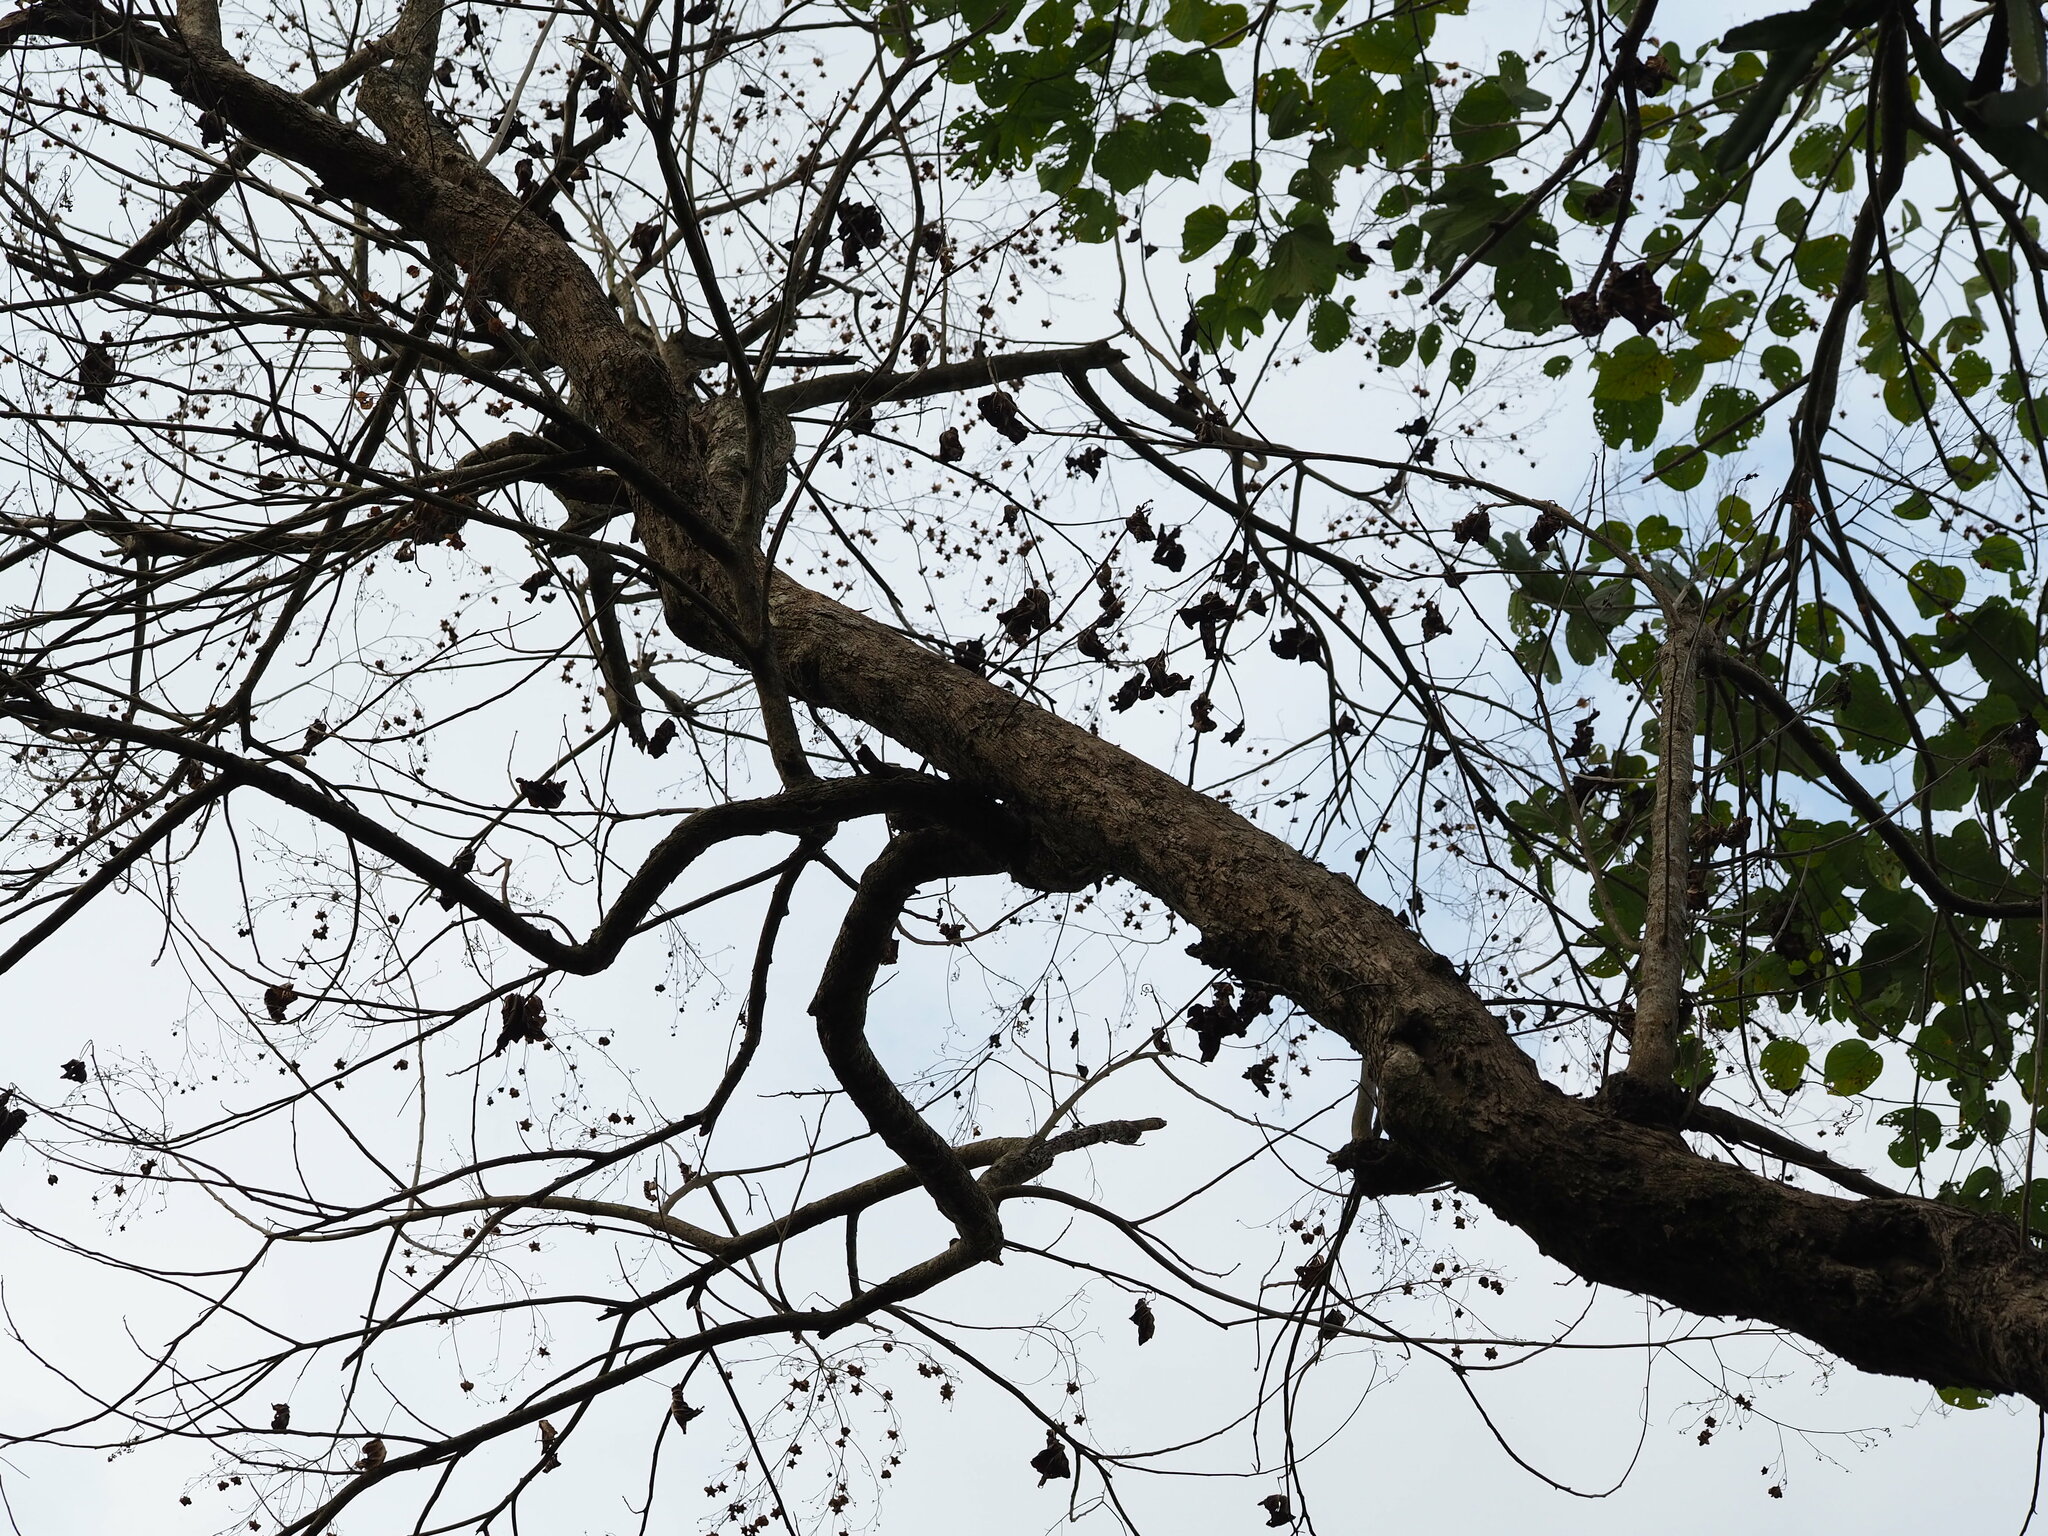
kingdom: Plantae
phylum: Tracheophyta
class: Magnoliopsida
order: Malvales
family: Malvaceae
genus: Kleinhovia
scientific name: Kleinhovia hospita
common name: Guest-tree
